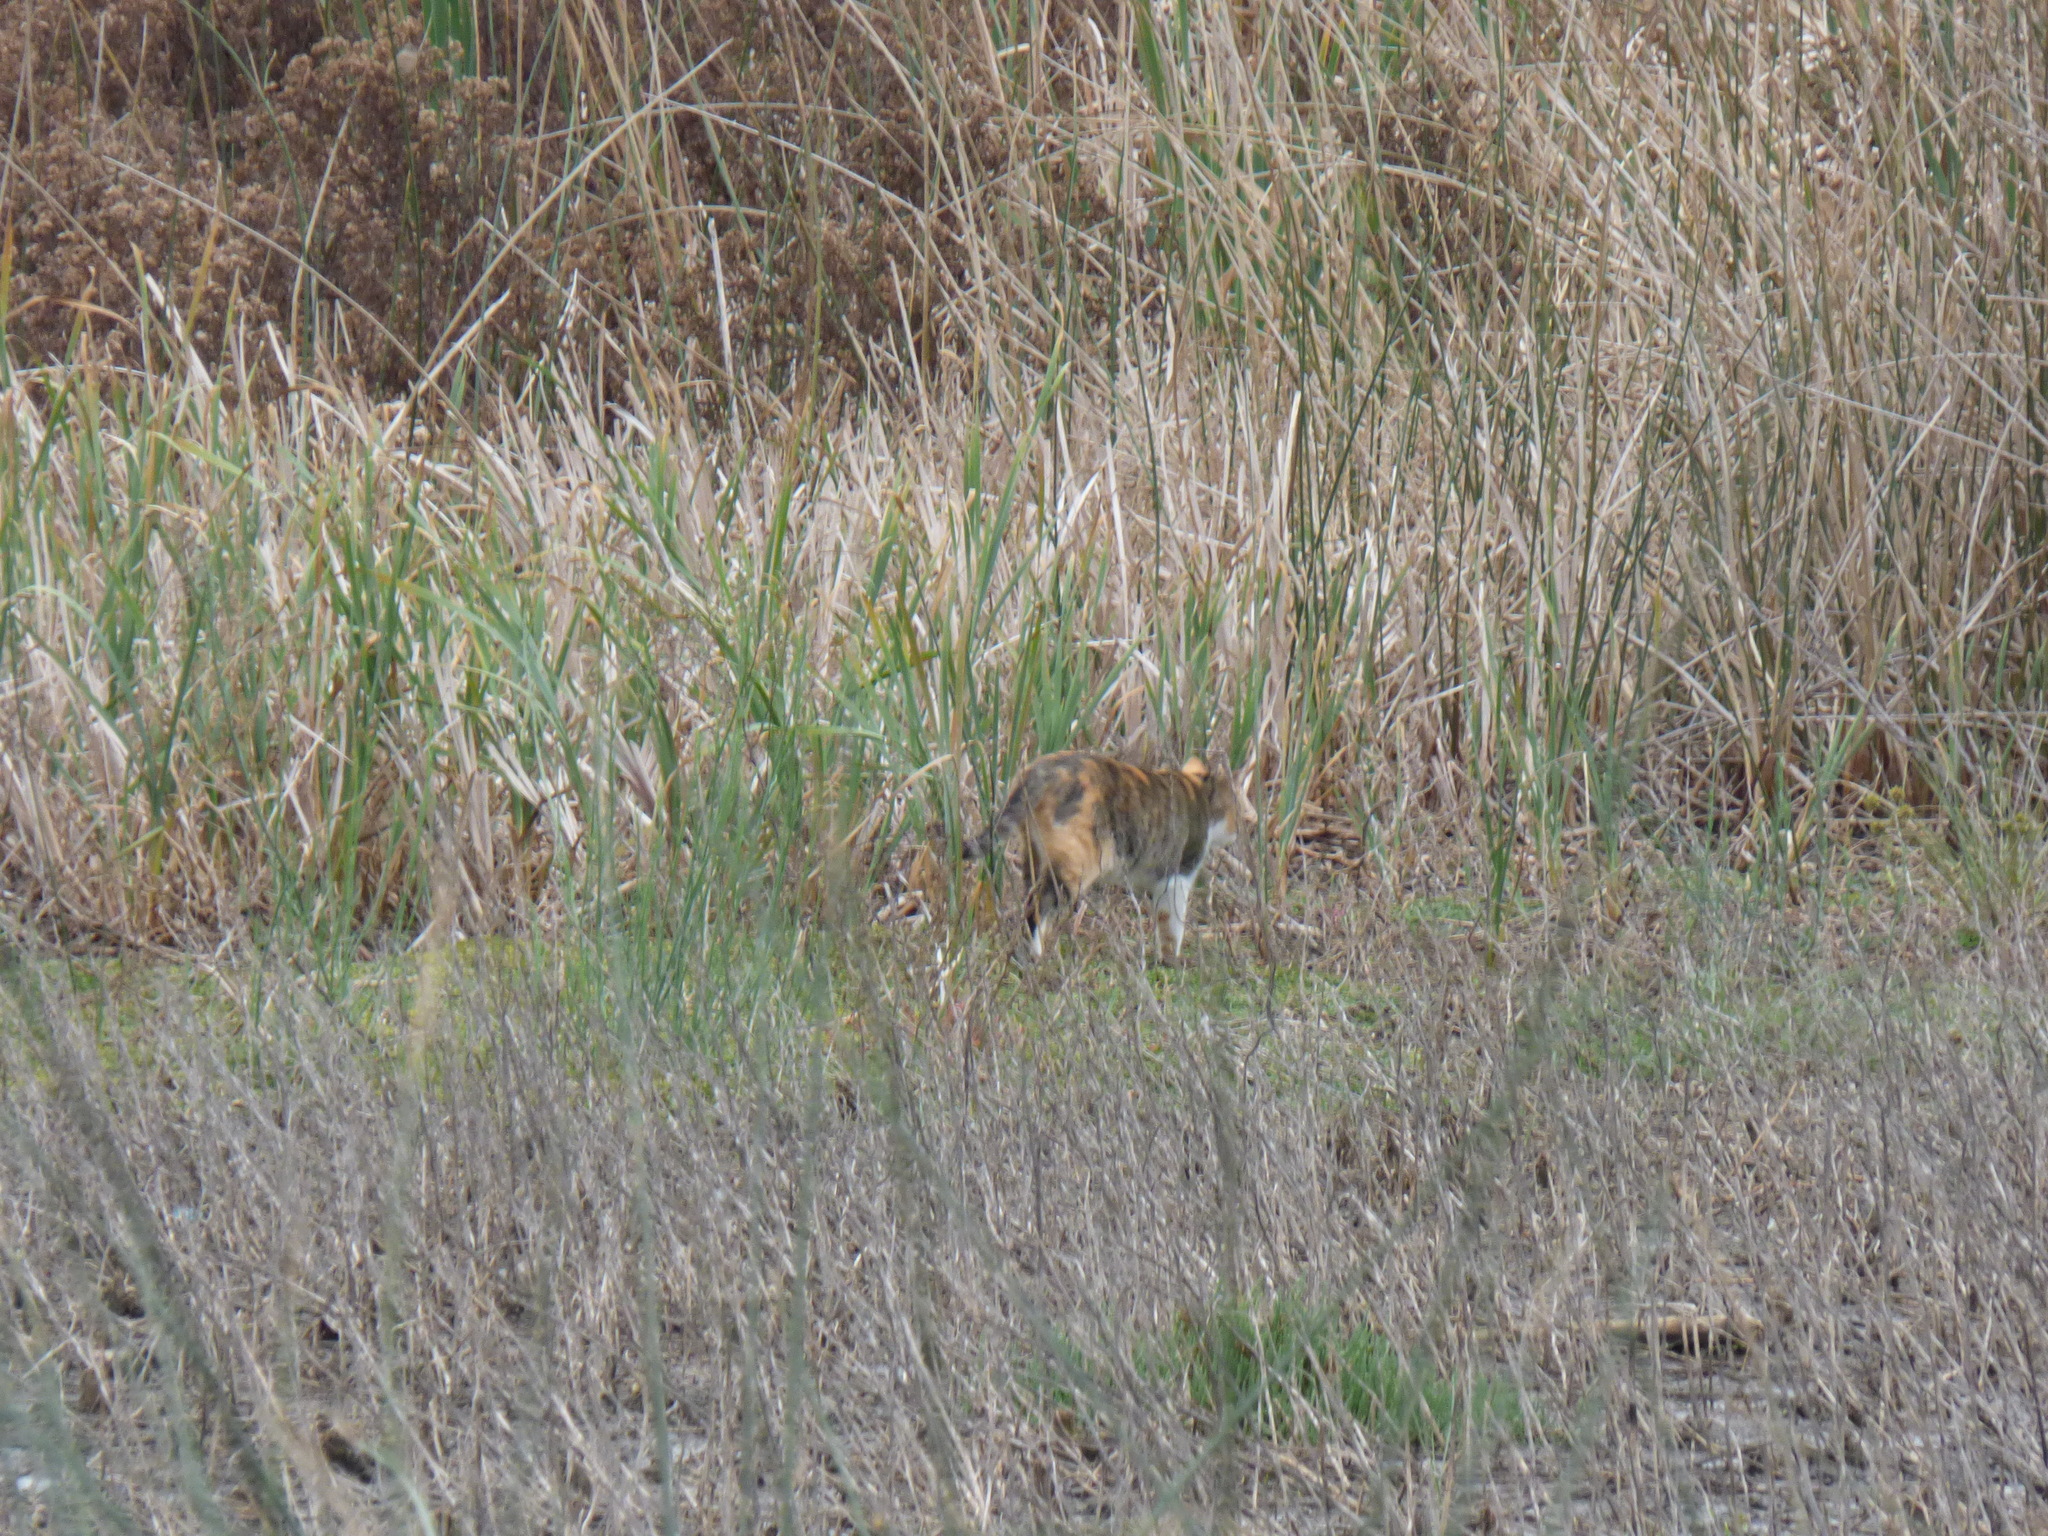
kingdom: Animalia
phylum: Chordata
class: Mammalia
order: Carnivora
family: Felidae
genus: Felis
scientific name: Felis catus
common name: Domestic cat
